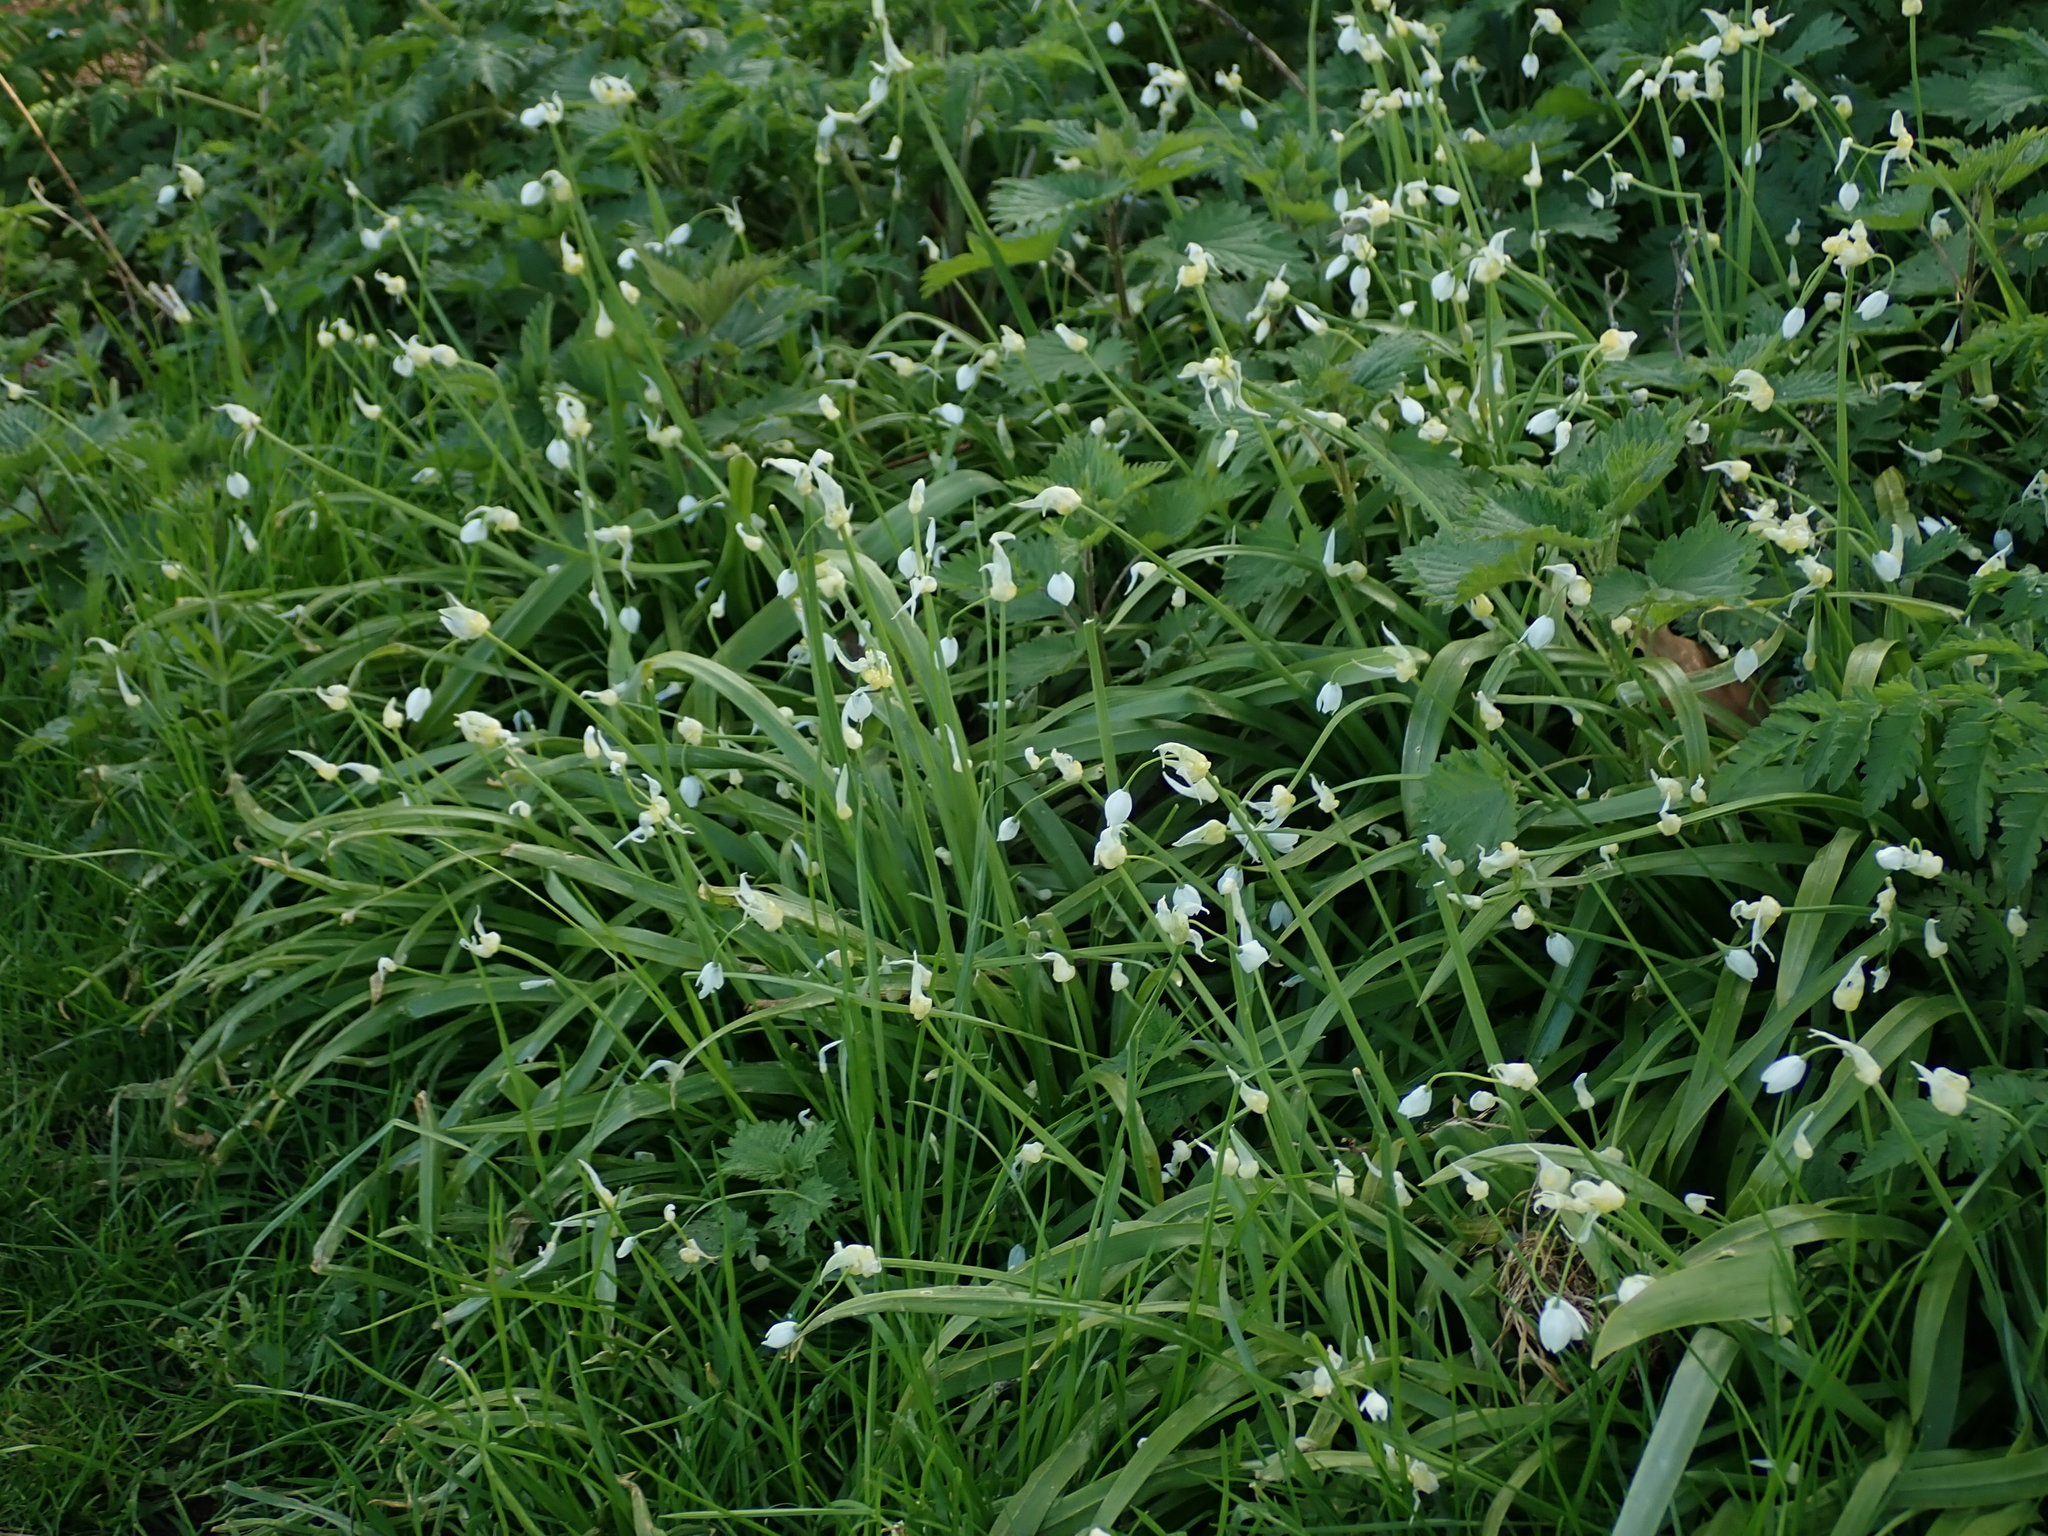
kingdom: Plantae
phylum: Tracheophyta
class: Liliopsida
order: Asparagales
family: Amaryllidaceae
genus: Allium
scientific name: Allium paradoxum
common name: Few-flowered garlic
